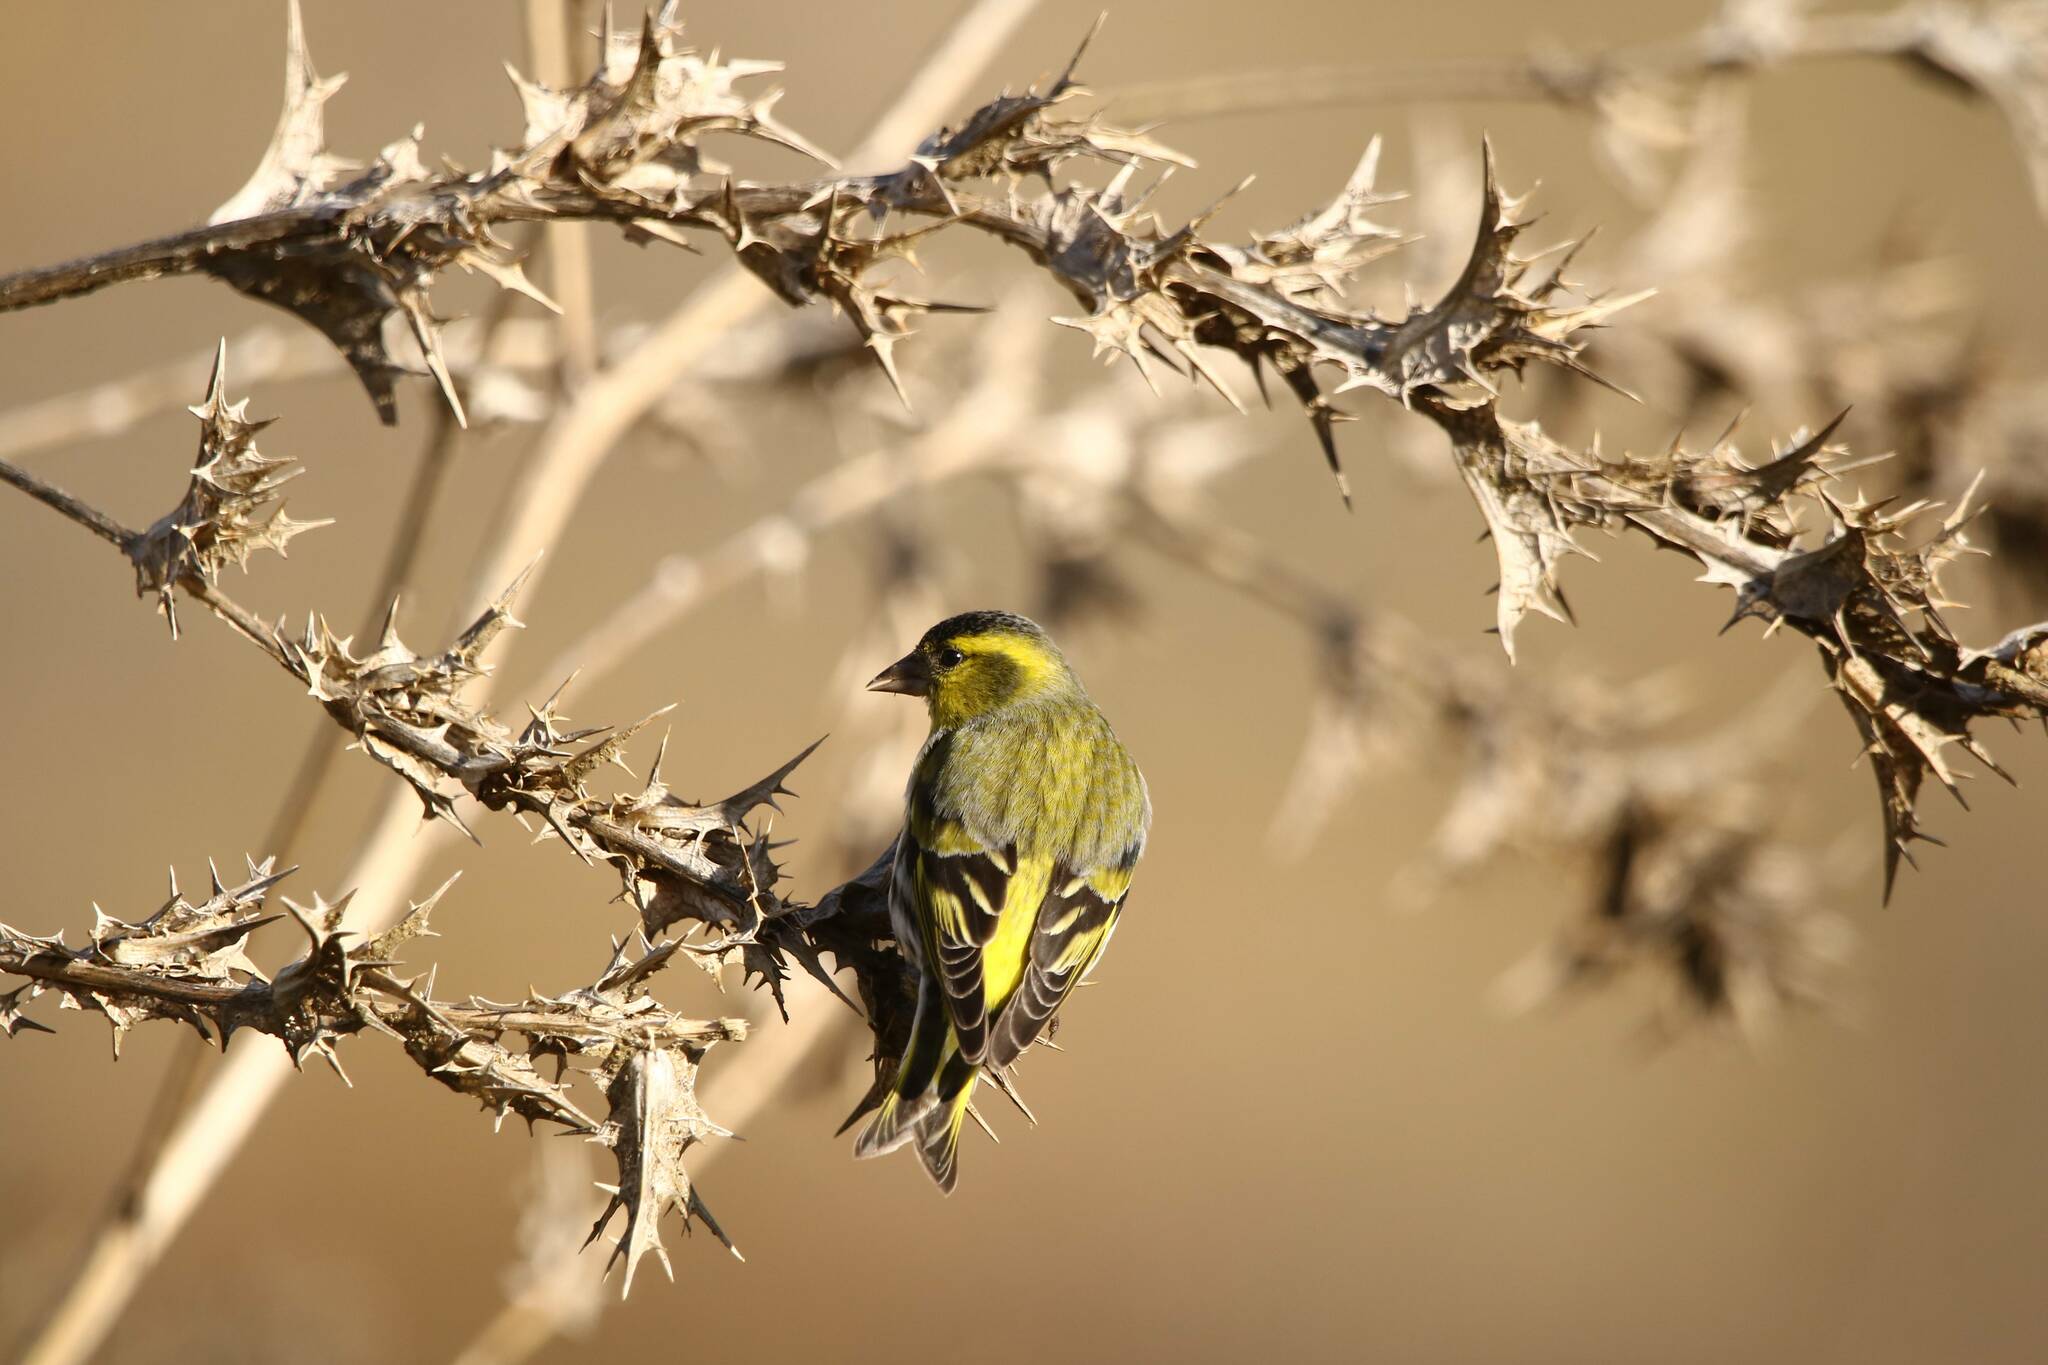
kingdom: Animalia
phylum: Chordata
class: Aves
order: Passeriformes
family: Fringillidae
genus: Spinus
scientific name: Spinus spinus
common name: Eurasian siskin
